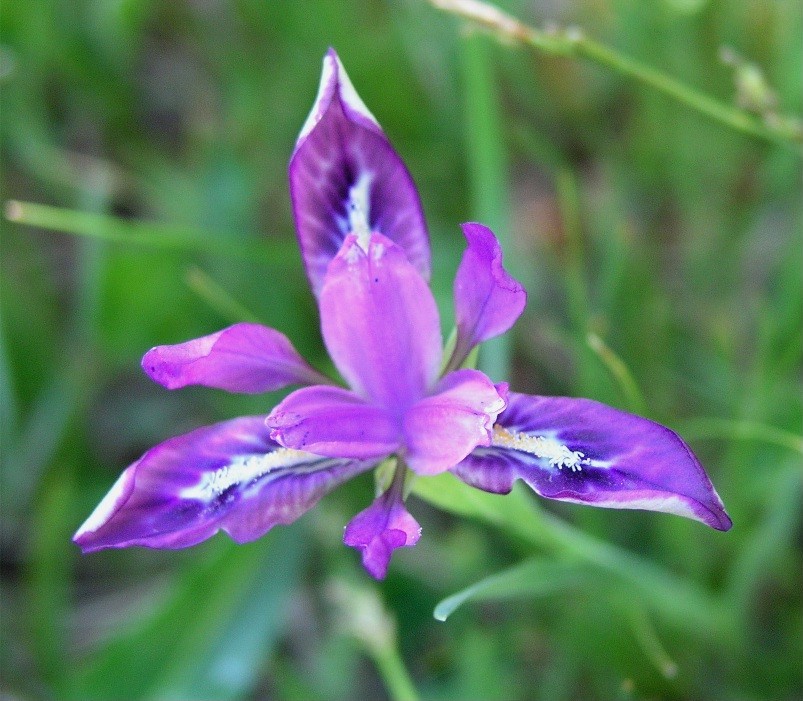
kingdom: Plantae
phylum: Tracheophyta
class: Liliopsida
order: Asparagales
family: Iridaceae
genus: Iris
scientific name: Iris goniocarpa
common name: Angular-fruit iris
